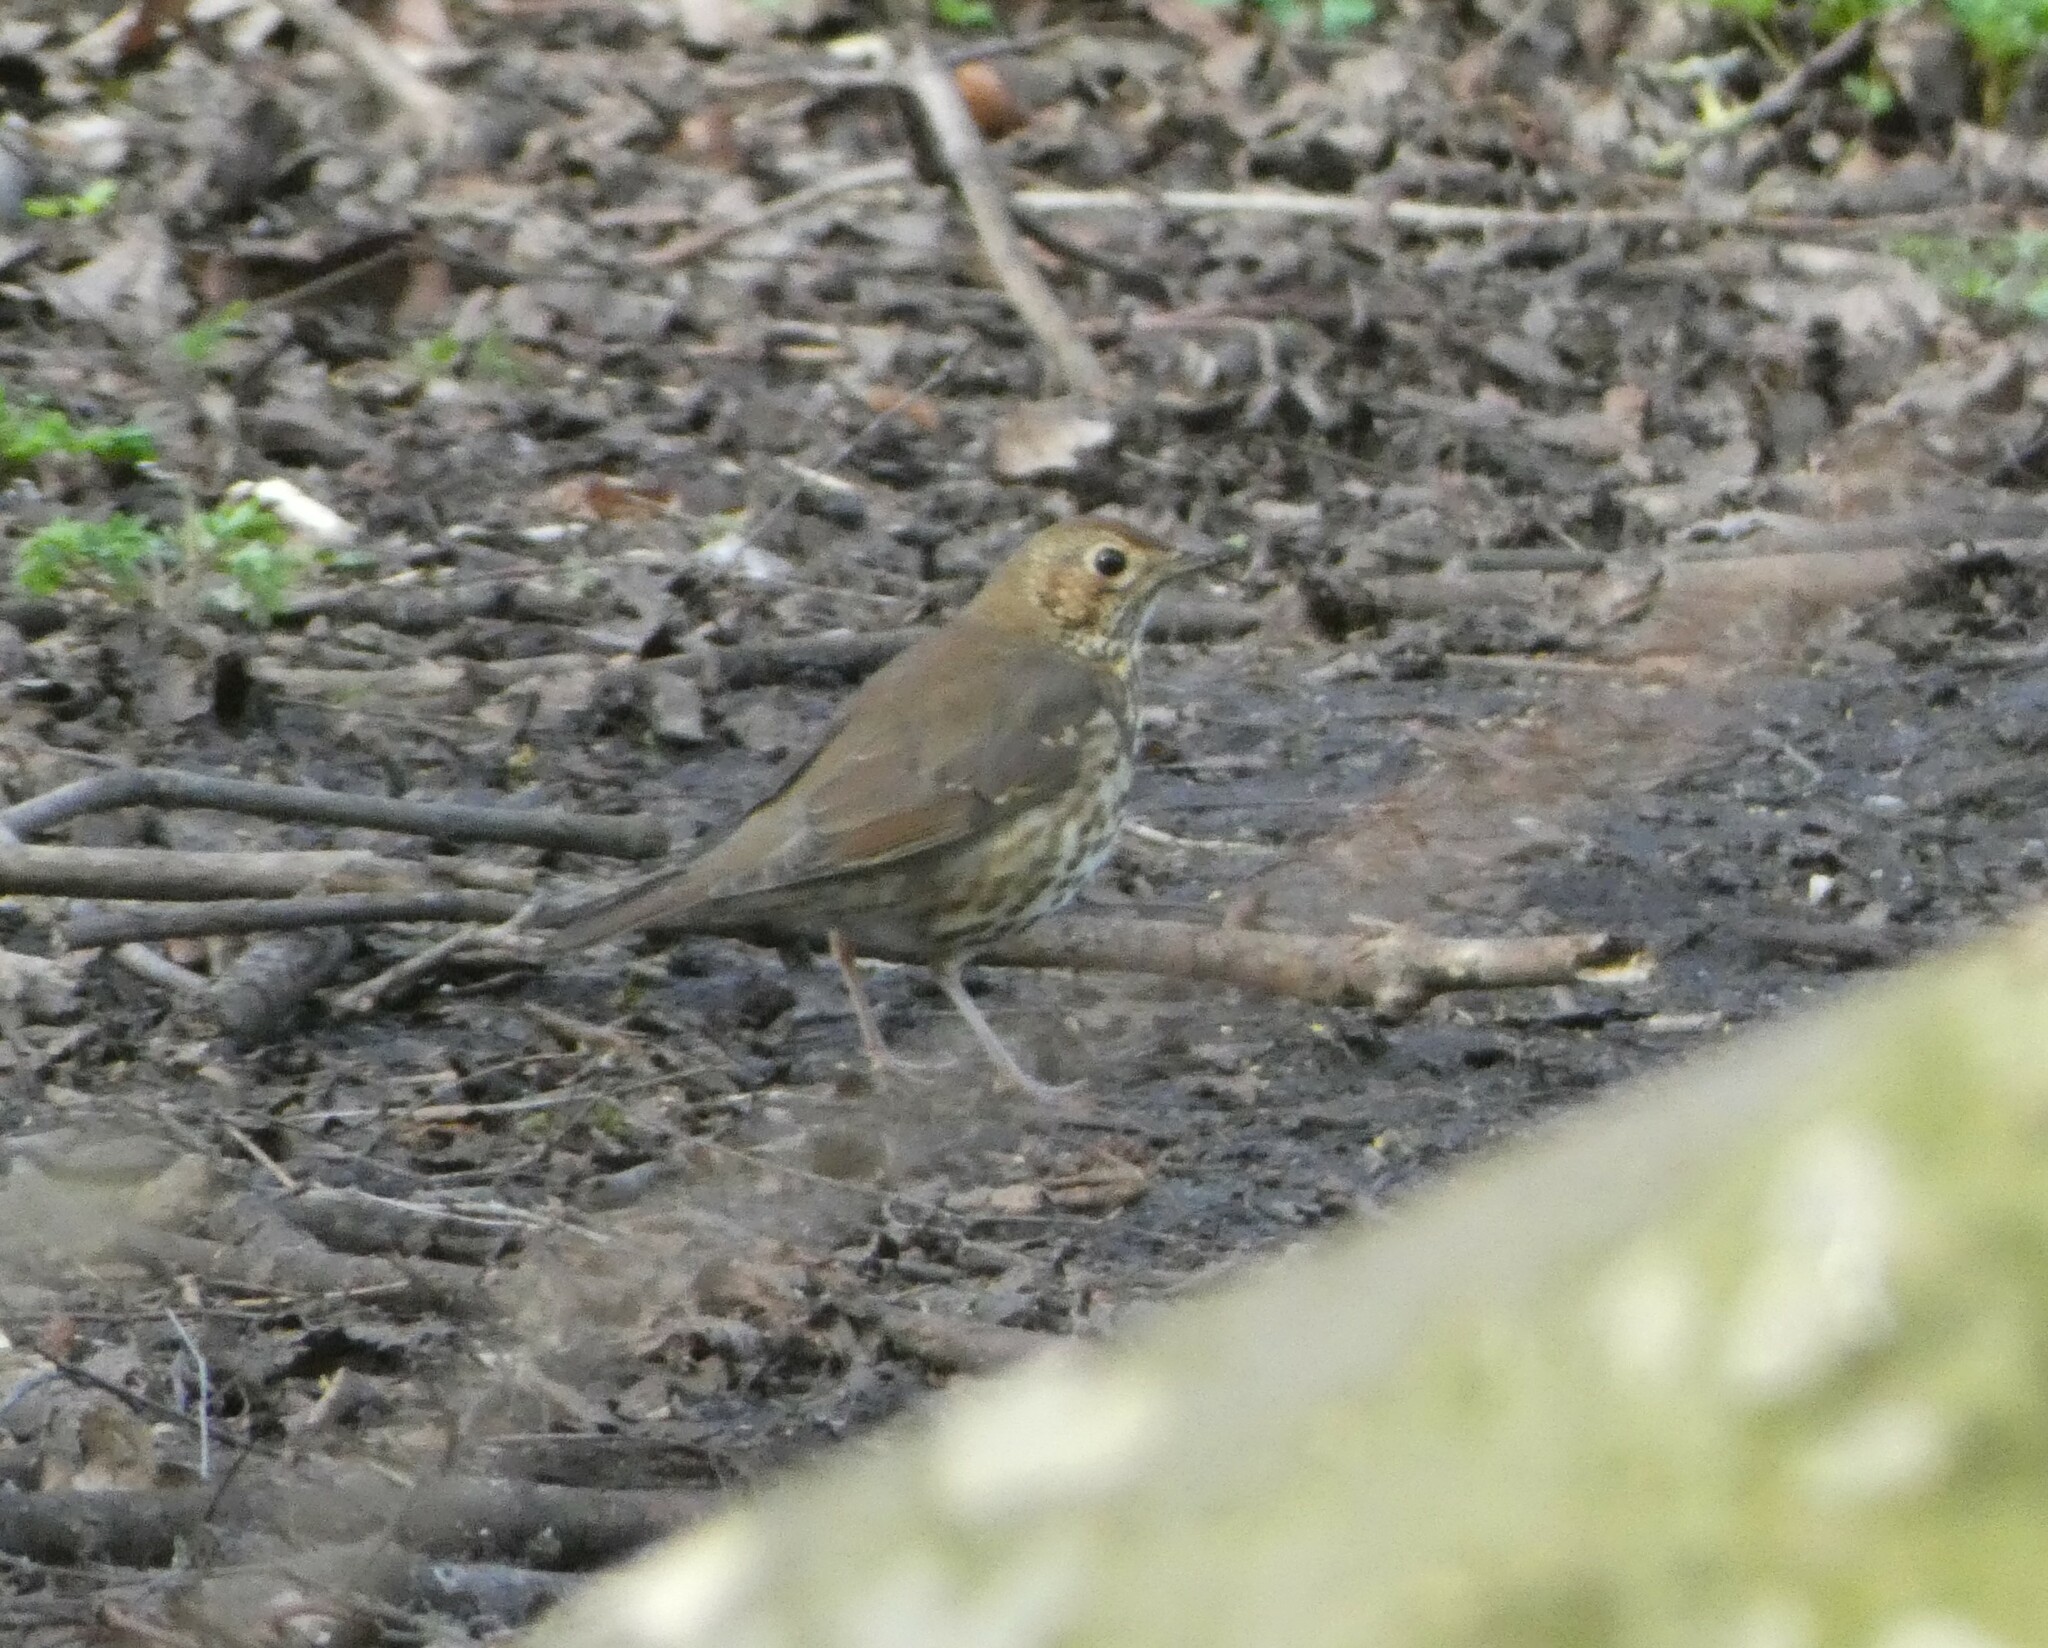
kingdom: Animalia
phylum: Chordata
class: Aves
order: Passeriformes
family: Turdidae
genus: Turdus
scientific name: Turdus philomelos
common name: Song thrush
